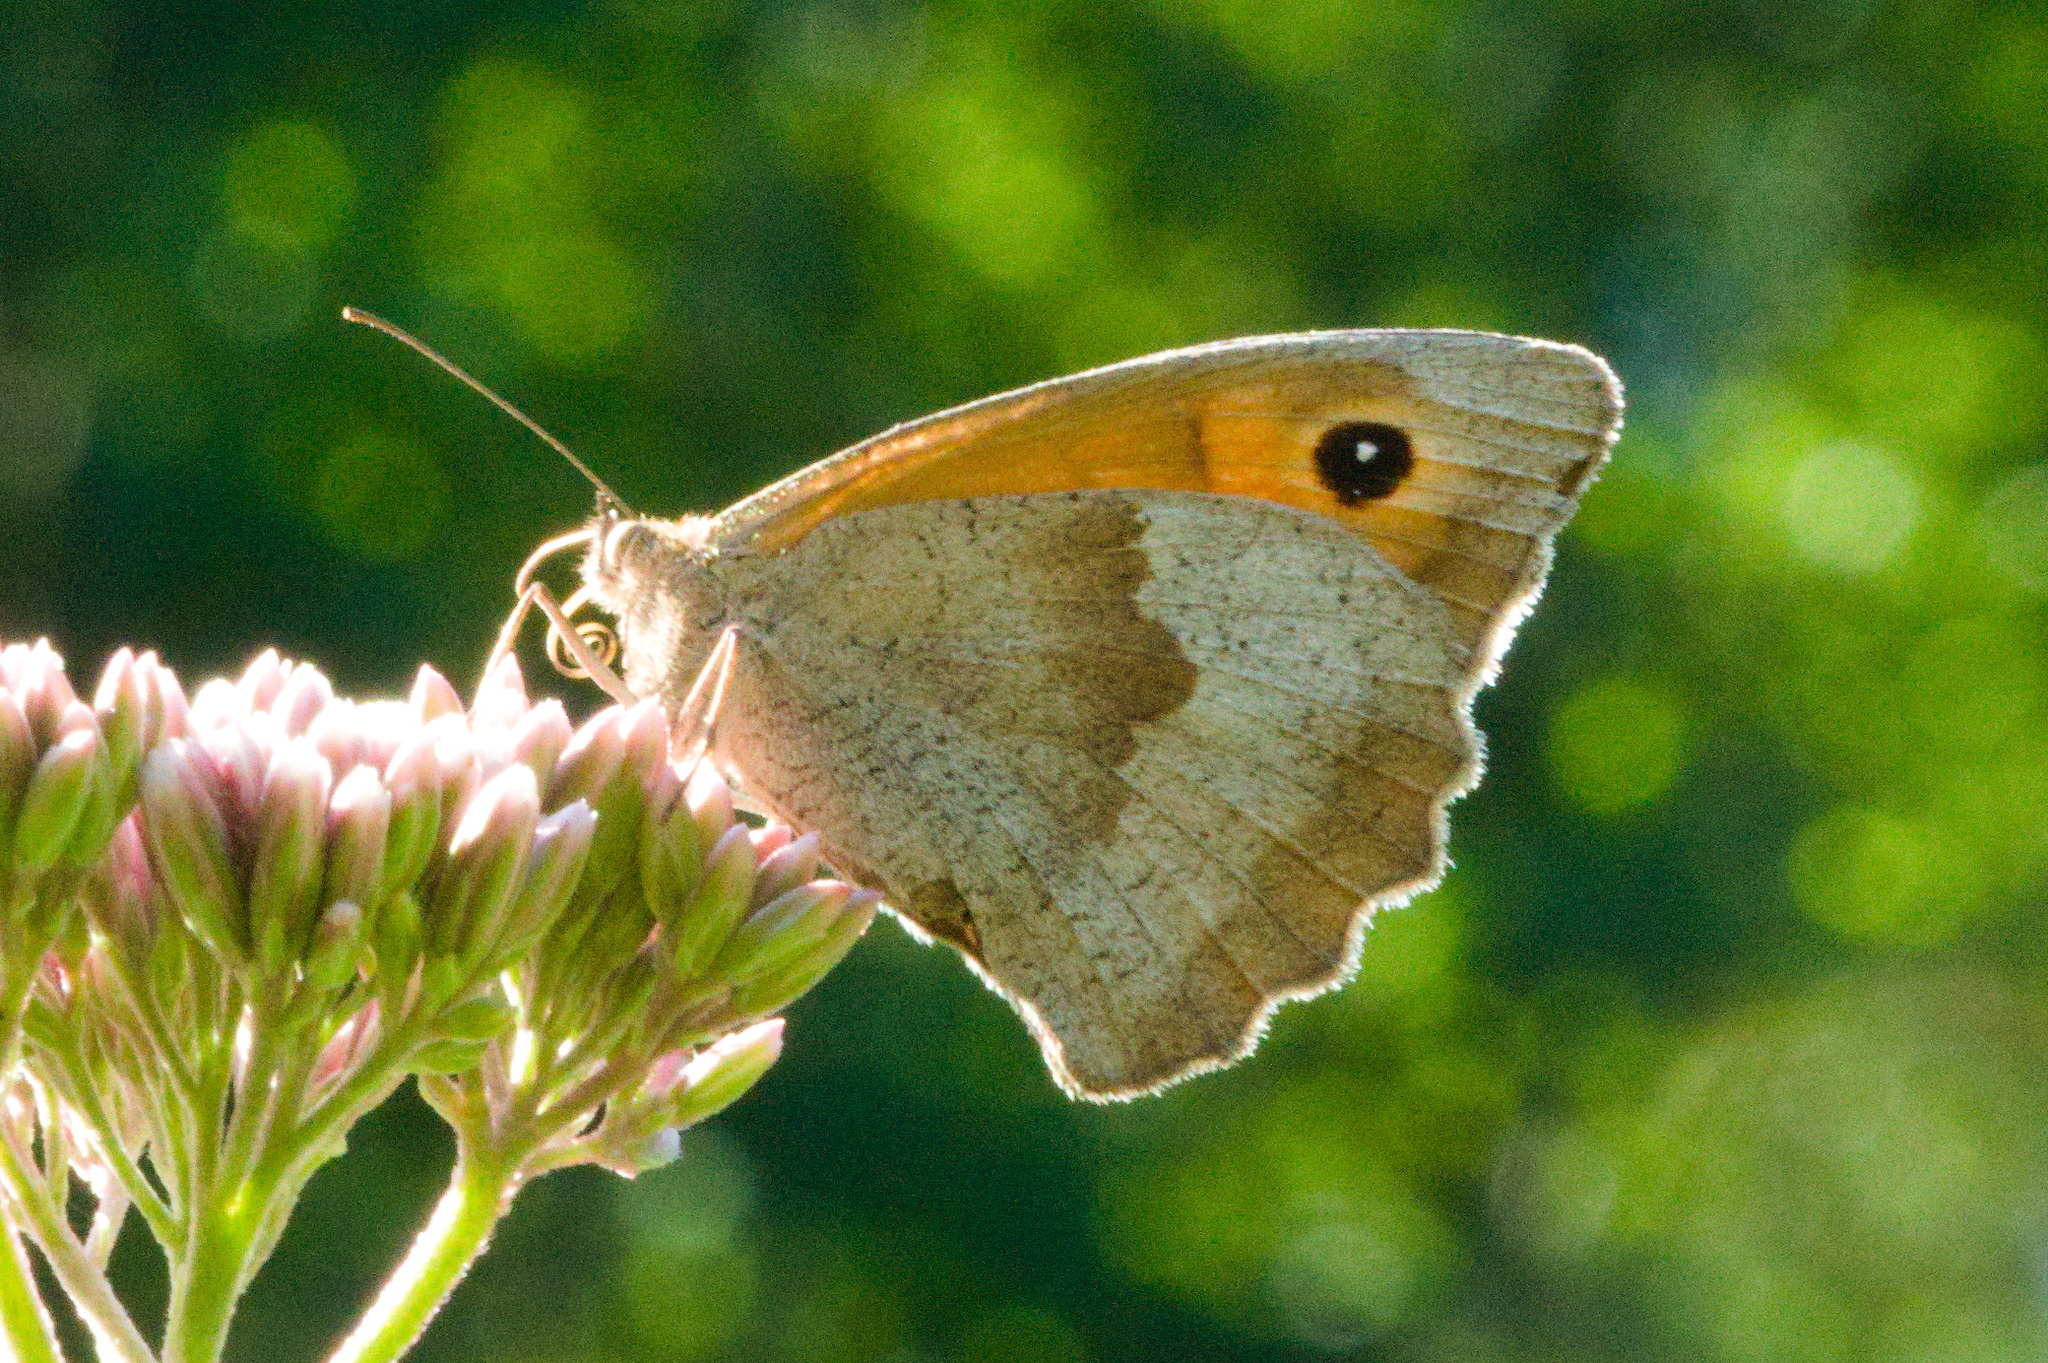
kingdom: Animalia
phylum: Arthropoda
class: Insecta
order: Lepidoptera
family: Nymphalidae
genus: Maniola
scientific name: Maniola jurtina
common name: Meadow brown
